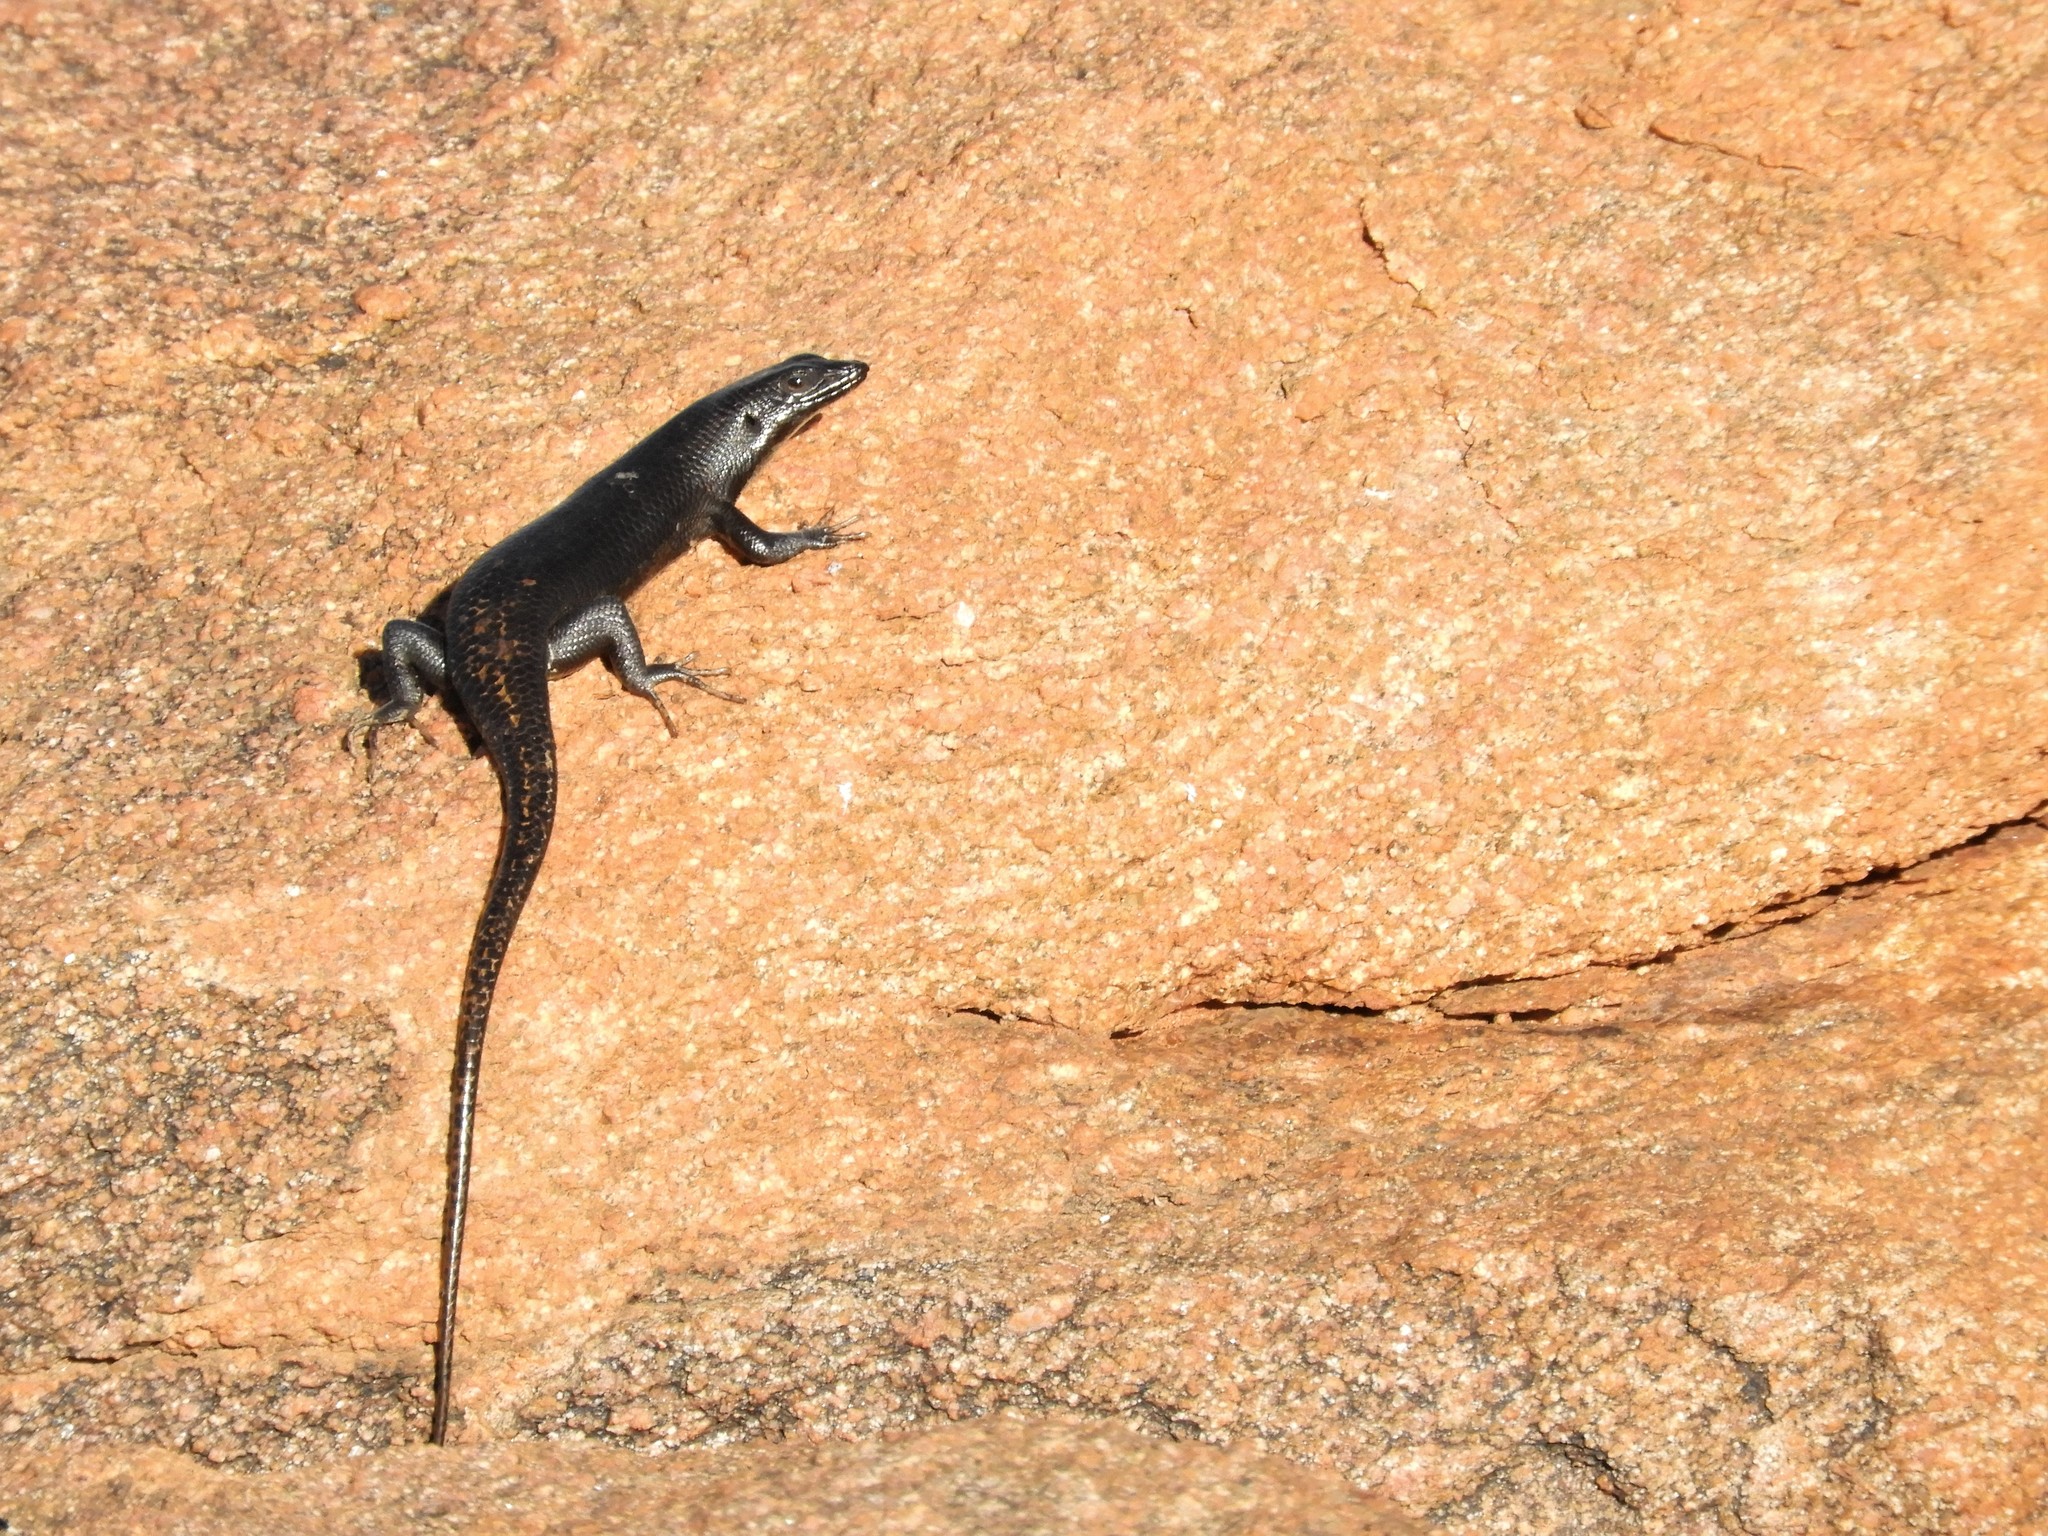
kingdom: Animalia
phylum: Chordata
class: Squamata
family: Scincidae
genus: Trachylepis
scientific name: Trachylepis sulcata
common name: Western rock skink
